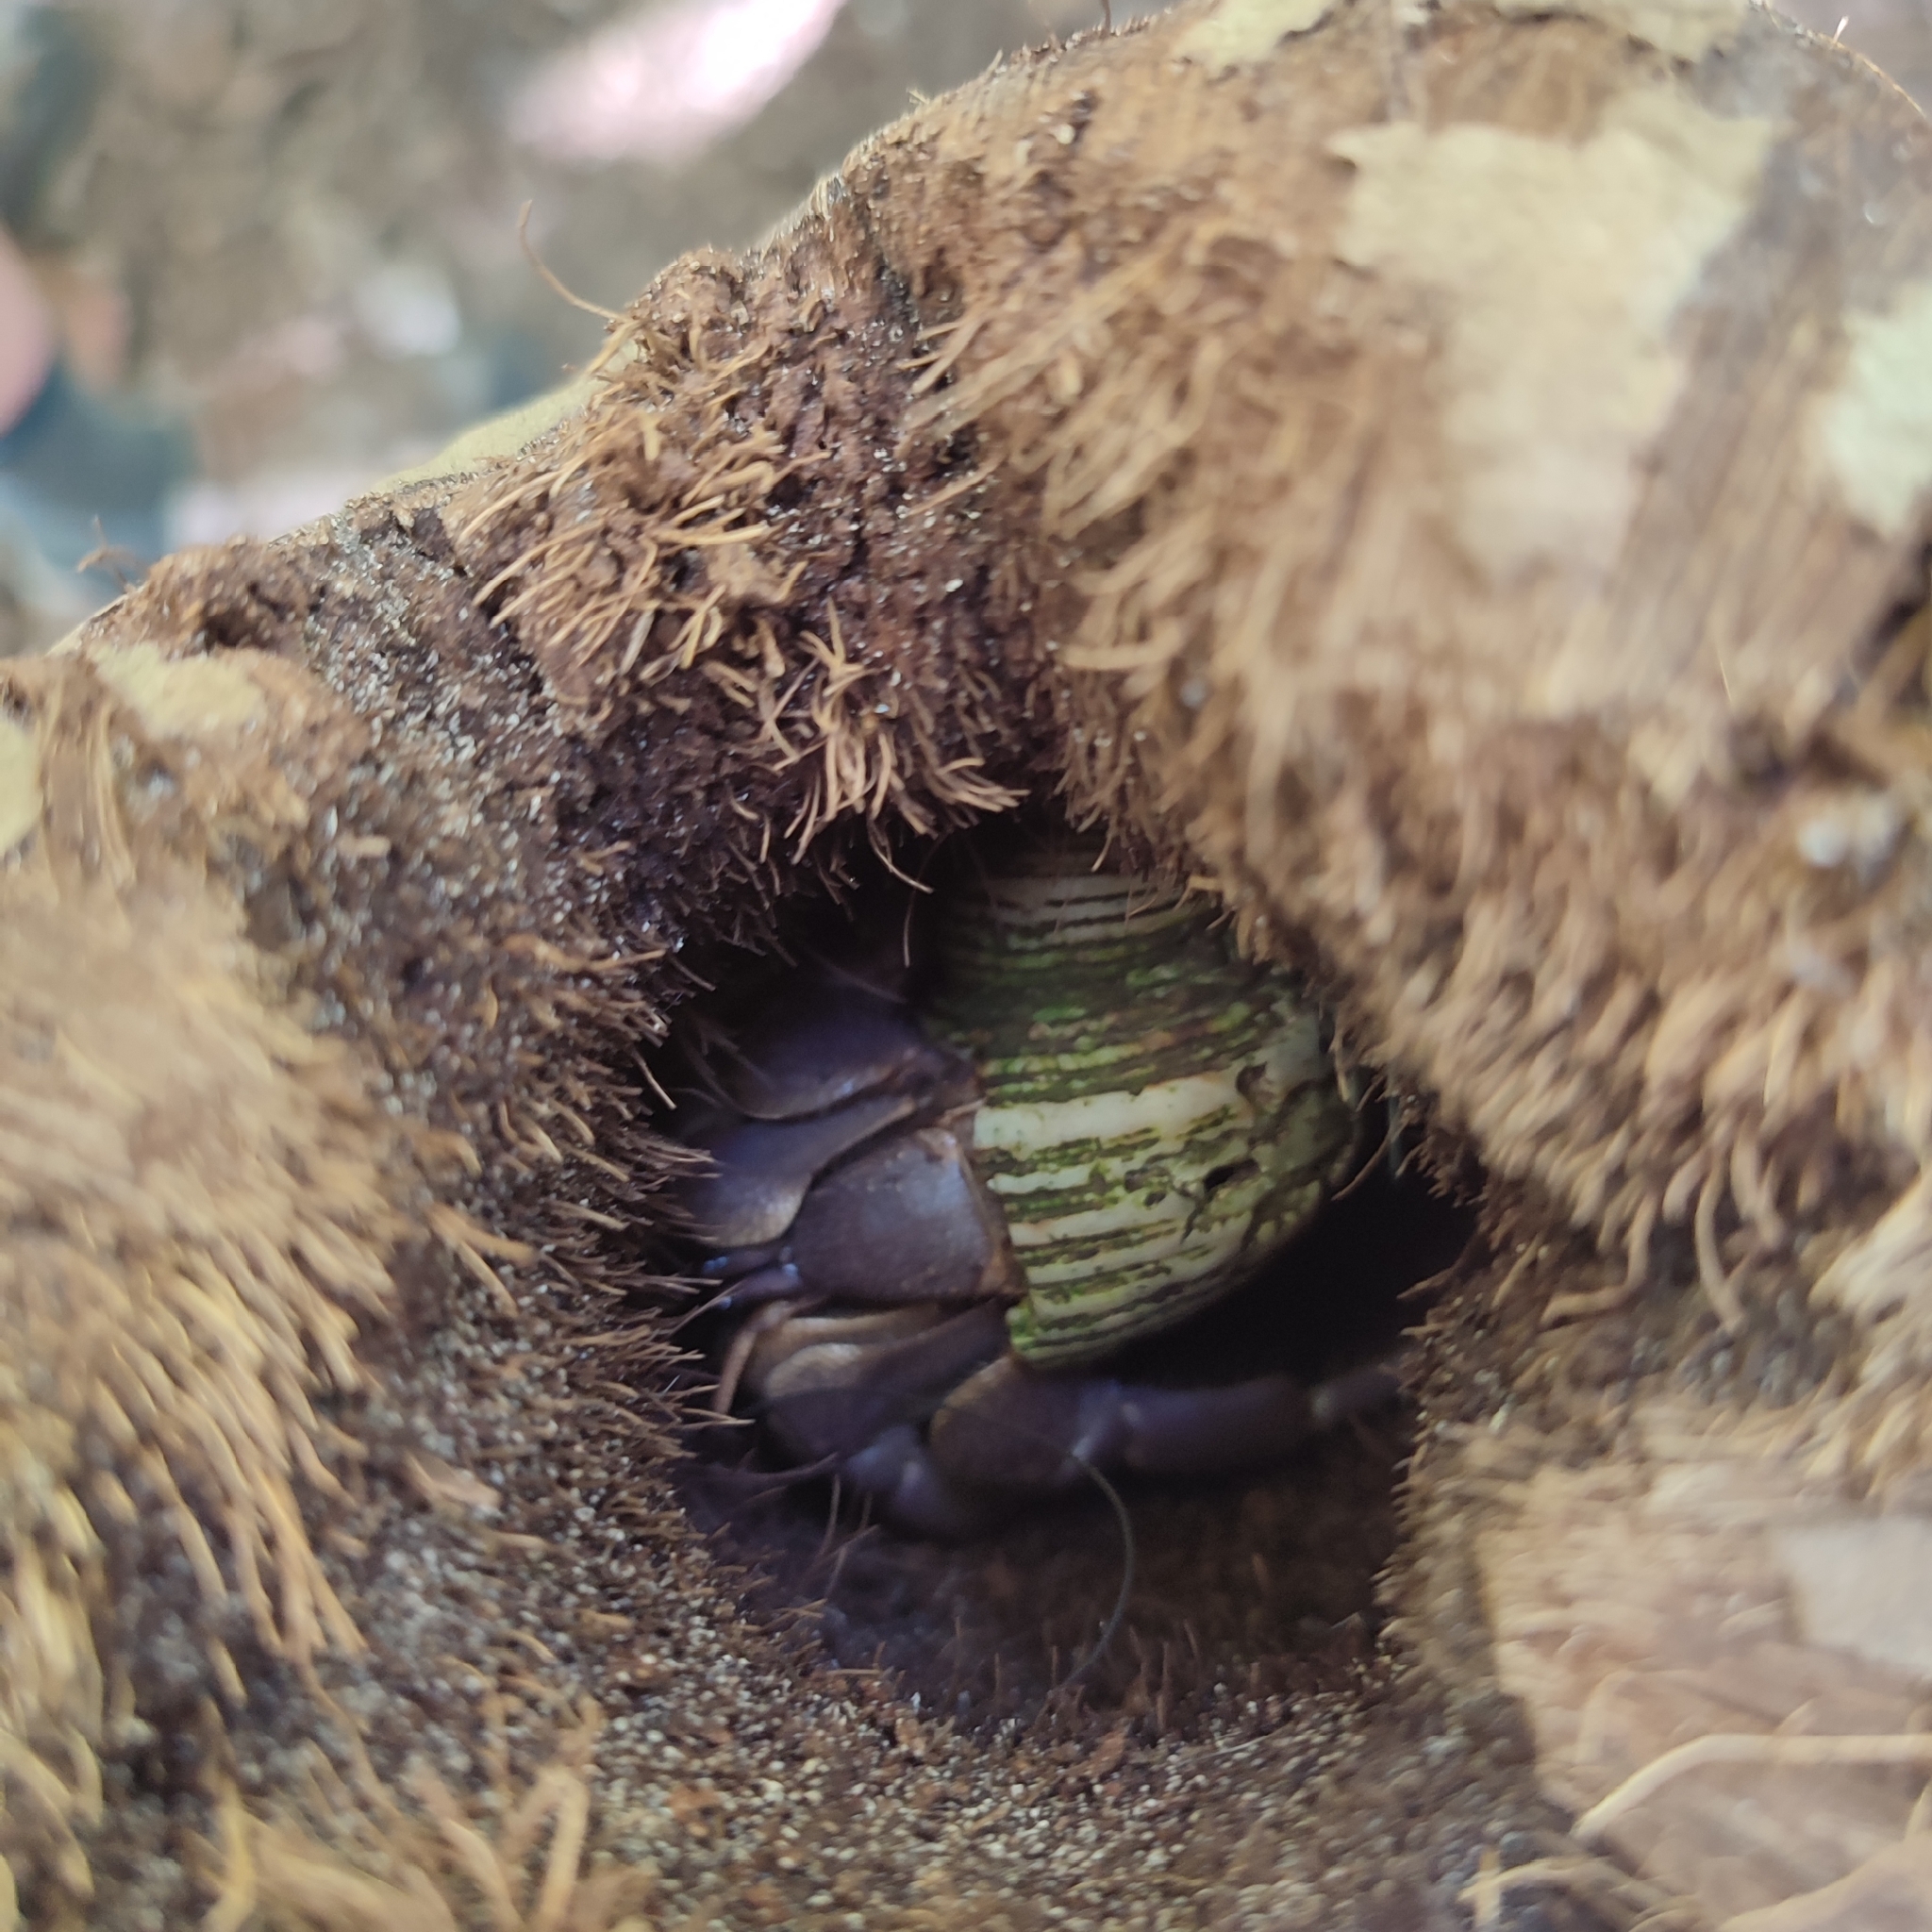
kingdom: Animalia
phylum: Arthropoda
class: Malacostraca
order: Decapoda
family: Coenobitidae
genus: Coenobita
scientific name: Coenobita brevimanus
